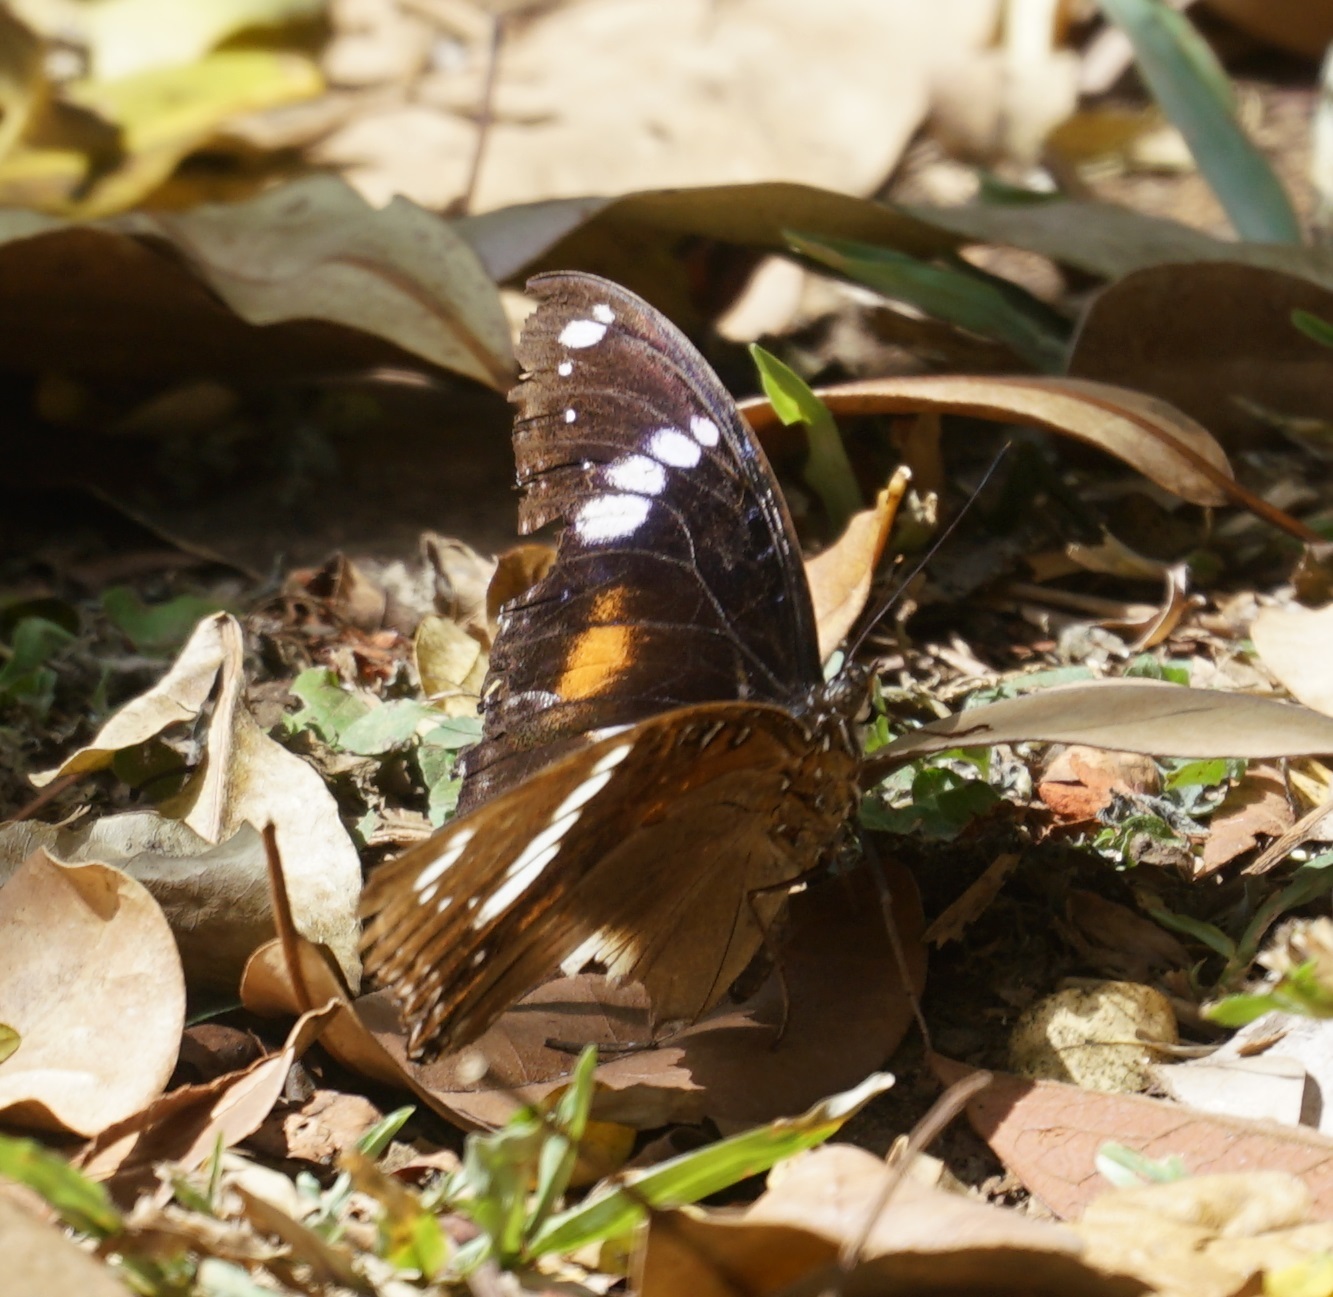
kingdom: Animalia
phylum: Arthropoda
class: Insecta
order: Lepidoptera
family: Nymphalidae
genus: Hypolimnas
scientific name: Hypolimnas bolina
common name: Great eggfly
